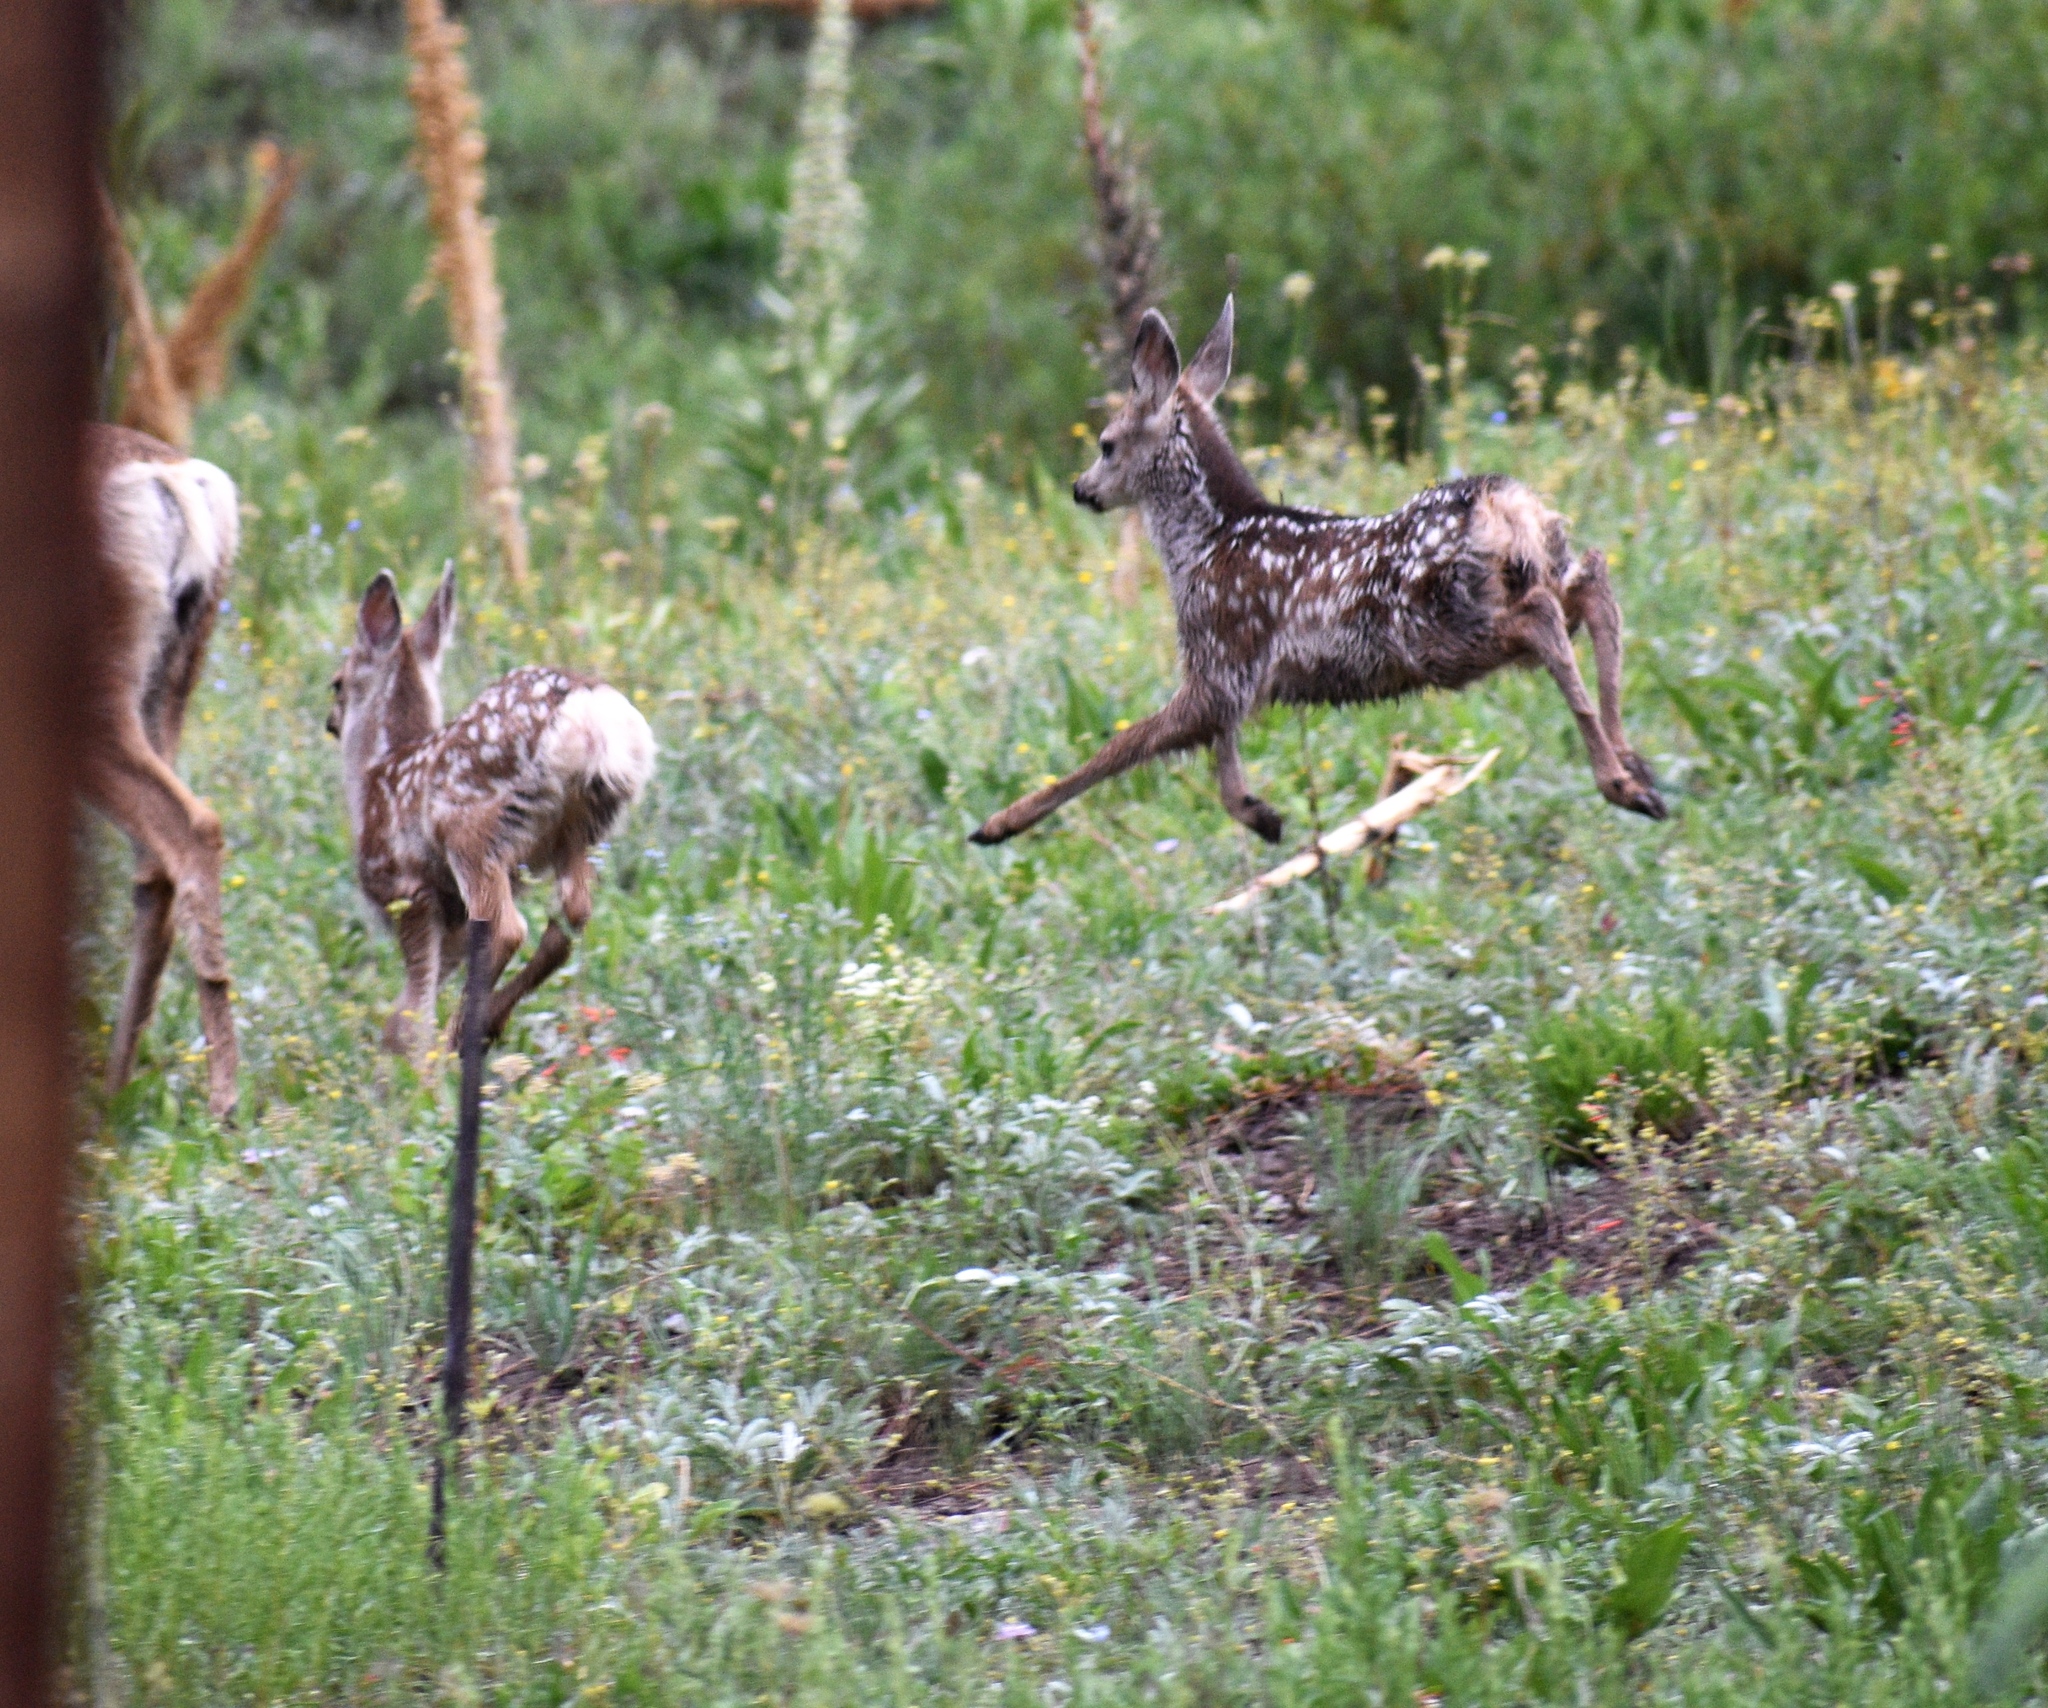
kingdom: Animalia
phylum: Chordata
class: Mammalia
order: Artiodactyla
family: Cervidae
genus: Odocoileus
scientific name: Odocoileus hemionus
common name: Mule deer
